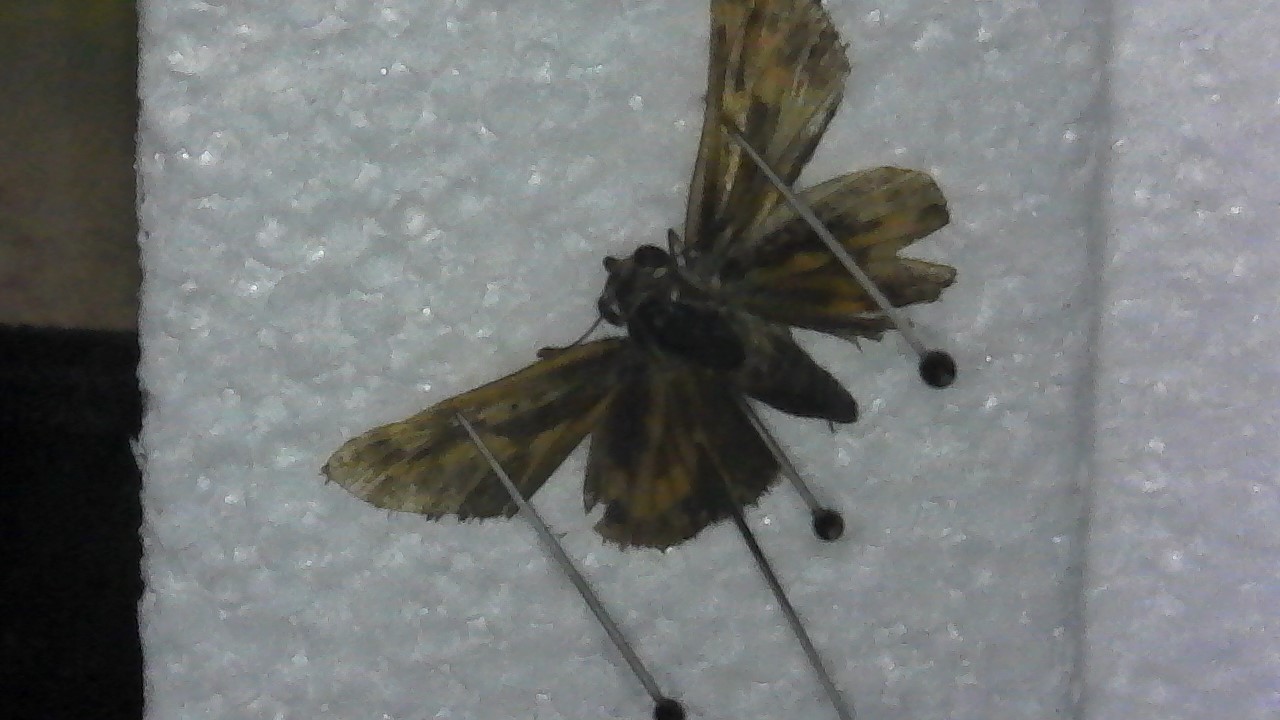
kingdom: Animalia
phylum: Arthropoda
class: Insecta
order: Lepidoptera
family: Hesperiidae
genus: Hylephila
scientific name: Hylephila phyleus
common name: Fiery skipper
